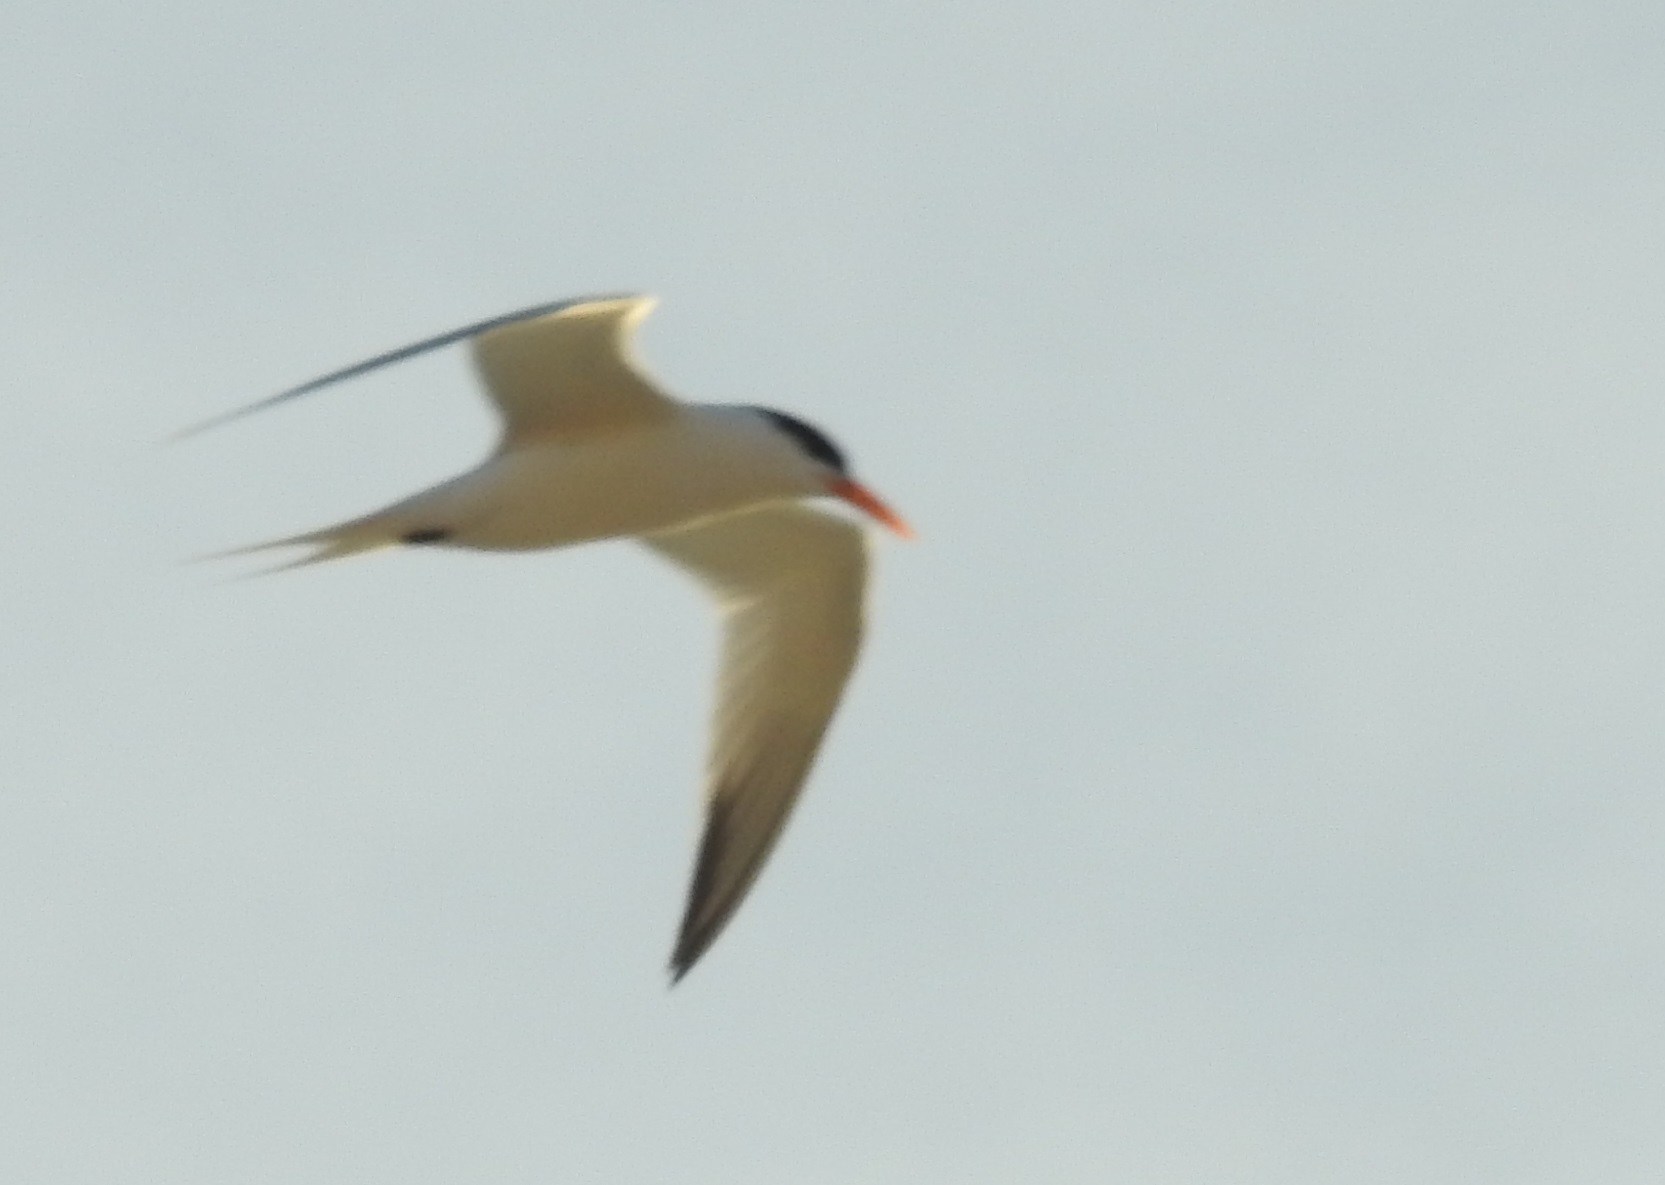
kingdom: Animalia
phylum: Chordata
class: Aves
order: Charadriiformes
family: Laridae
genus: Thalasseus
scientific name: Thalasseus bengalensis
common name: Lesser crested tern
